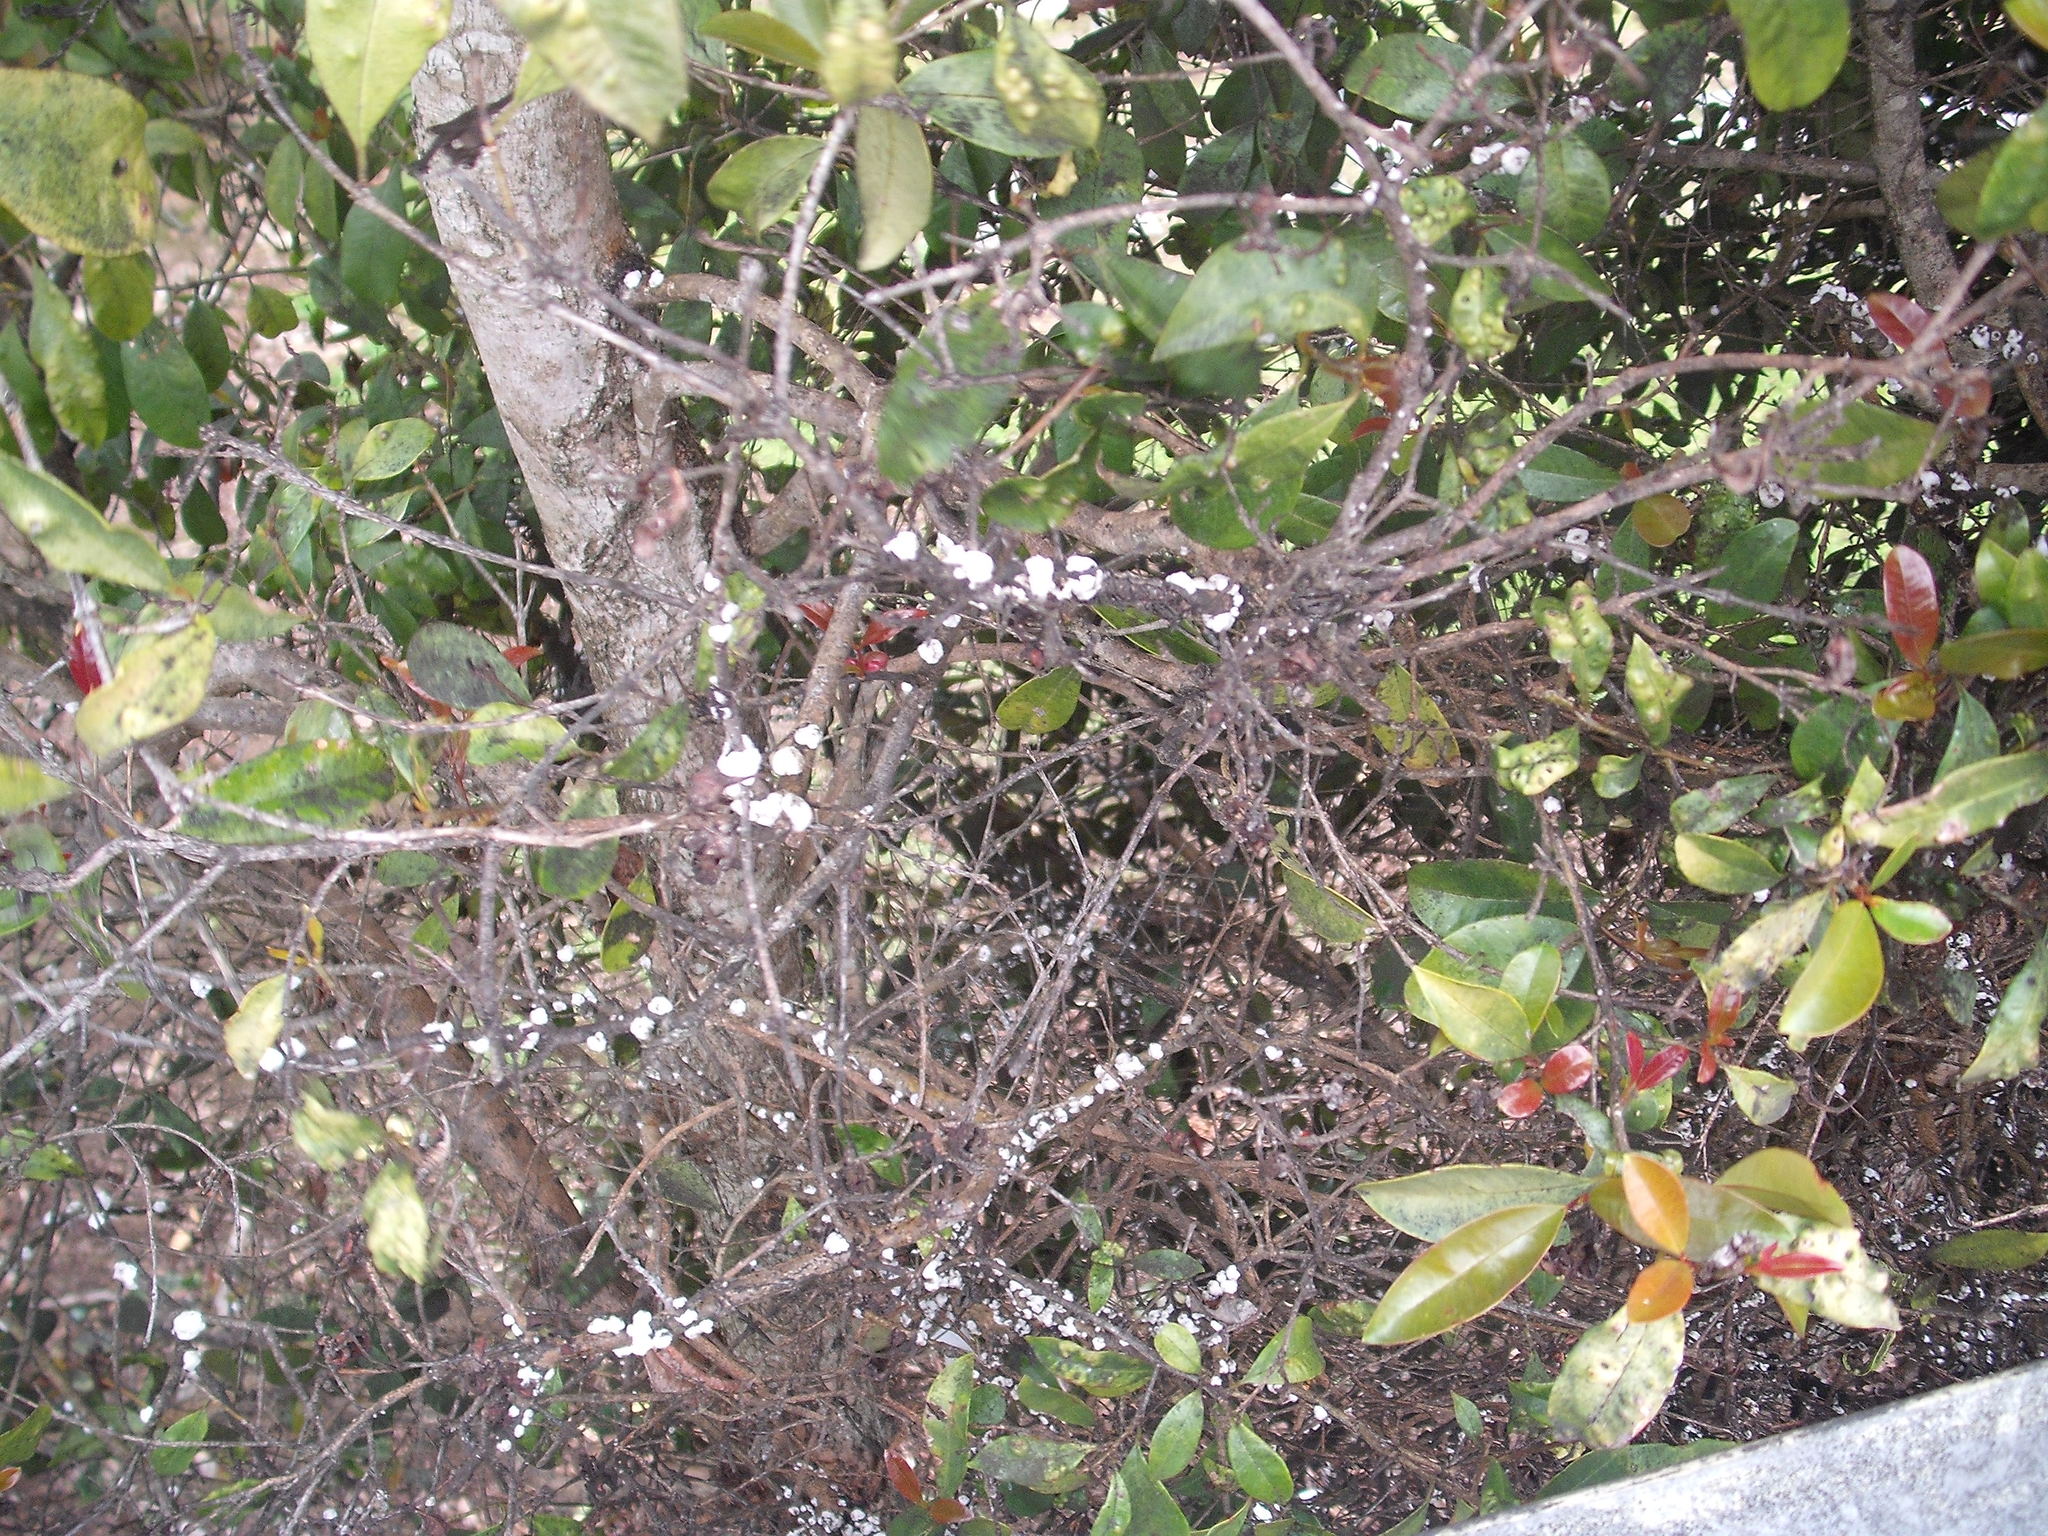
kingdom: Animalia
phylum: Arthropoda
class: Insecta
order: Hemiptera
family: Coccidae
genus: Ceroplastes
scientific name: Ceroplastes destructor
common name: Indian wax scale
